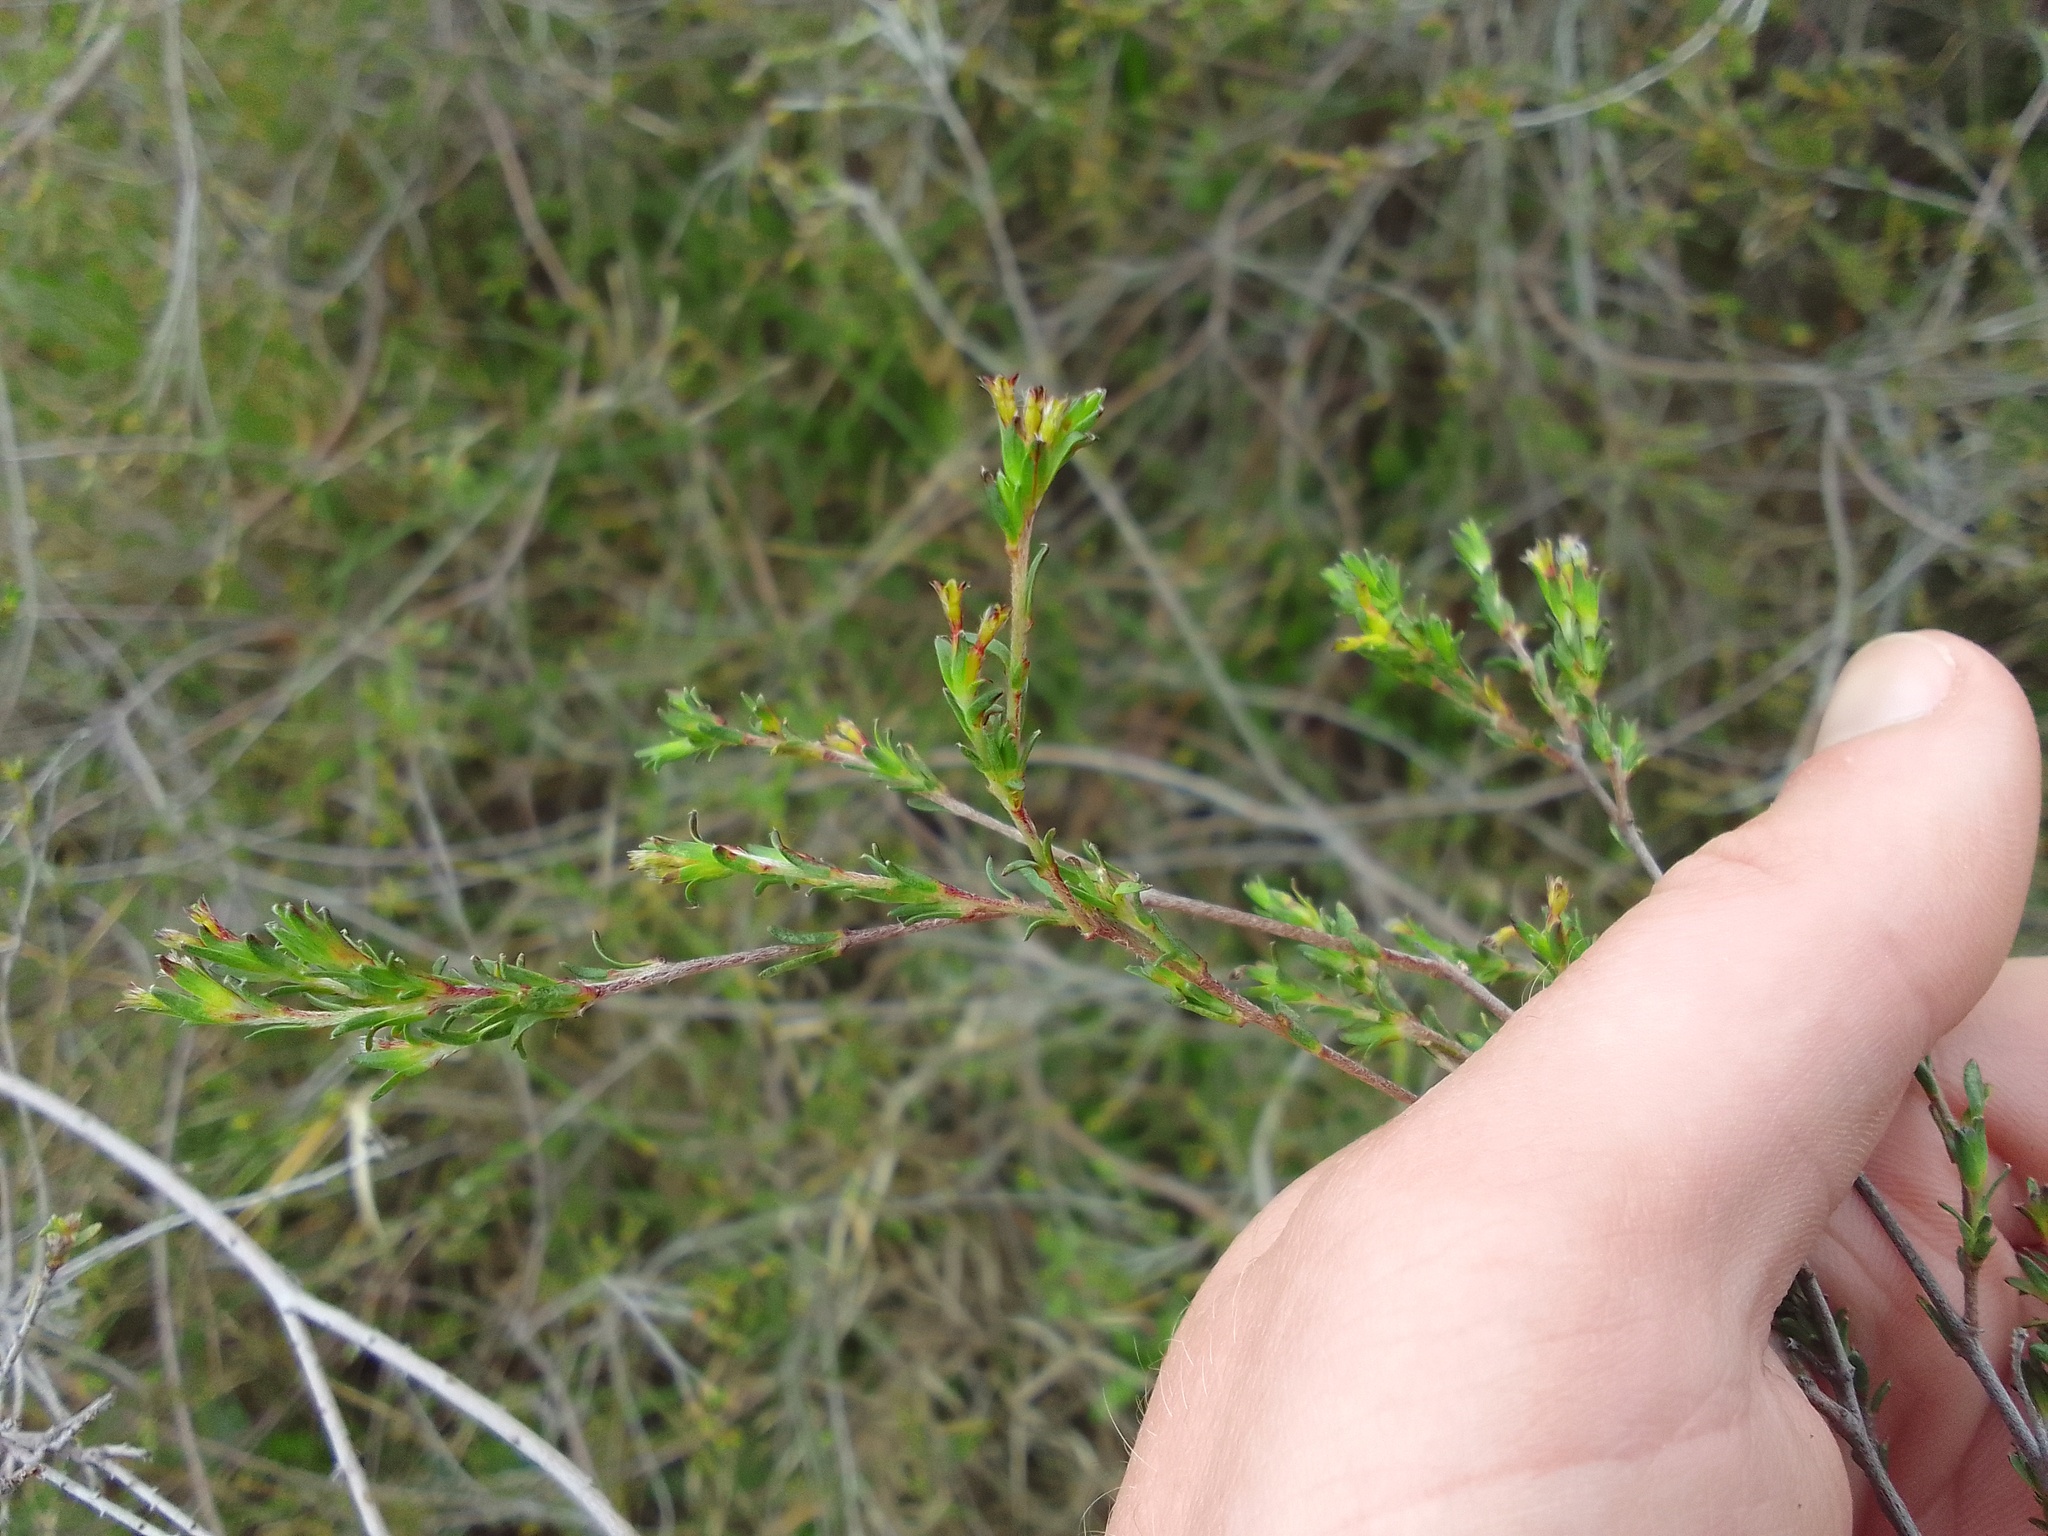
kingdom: Plantae
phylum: Tracheophyta
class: Magnoliopsida
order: Malvales
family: Thymelaeaceae
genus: Gnidia
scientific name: Gnidia laxa
